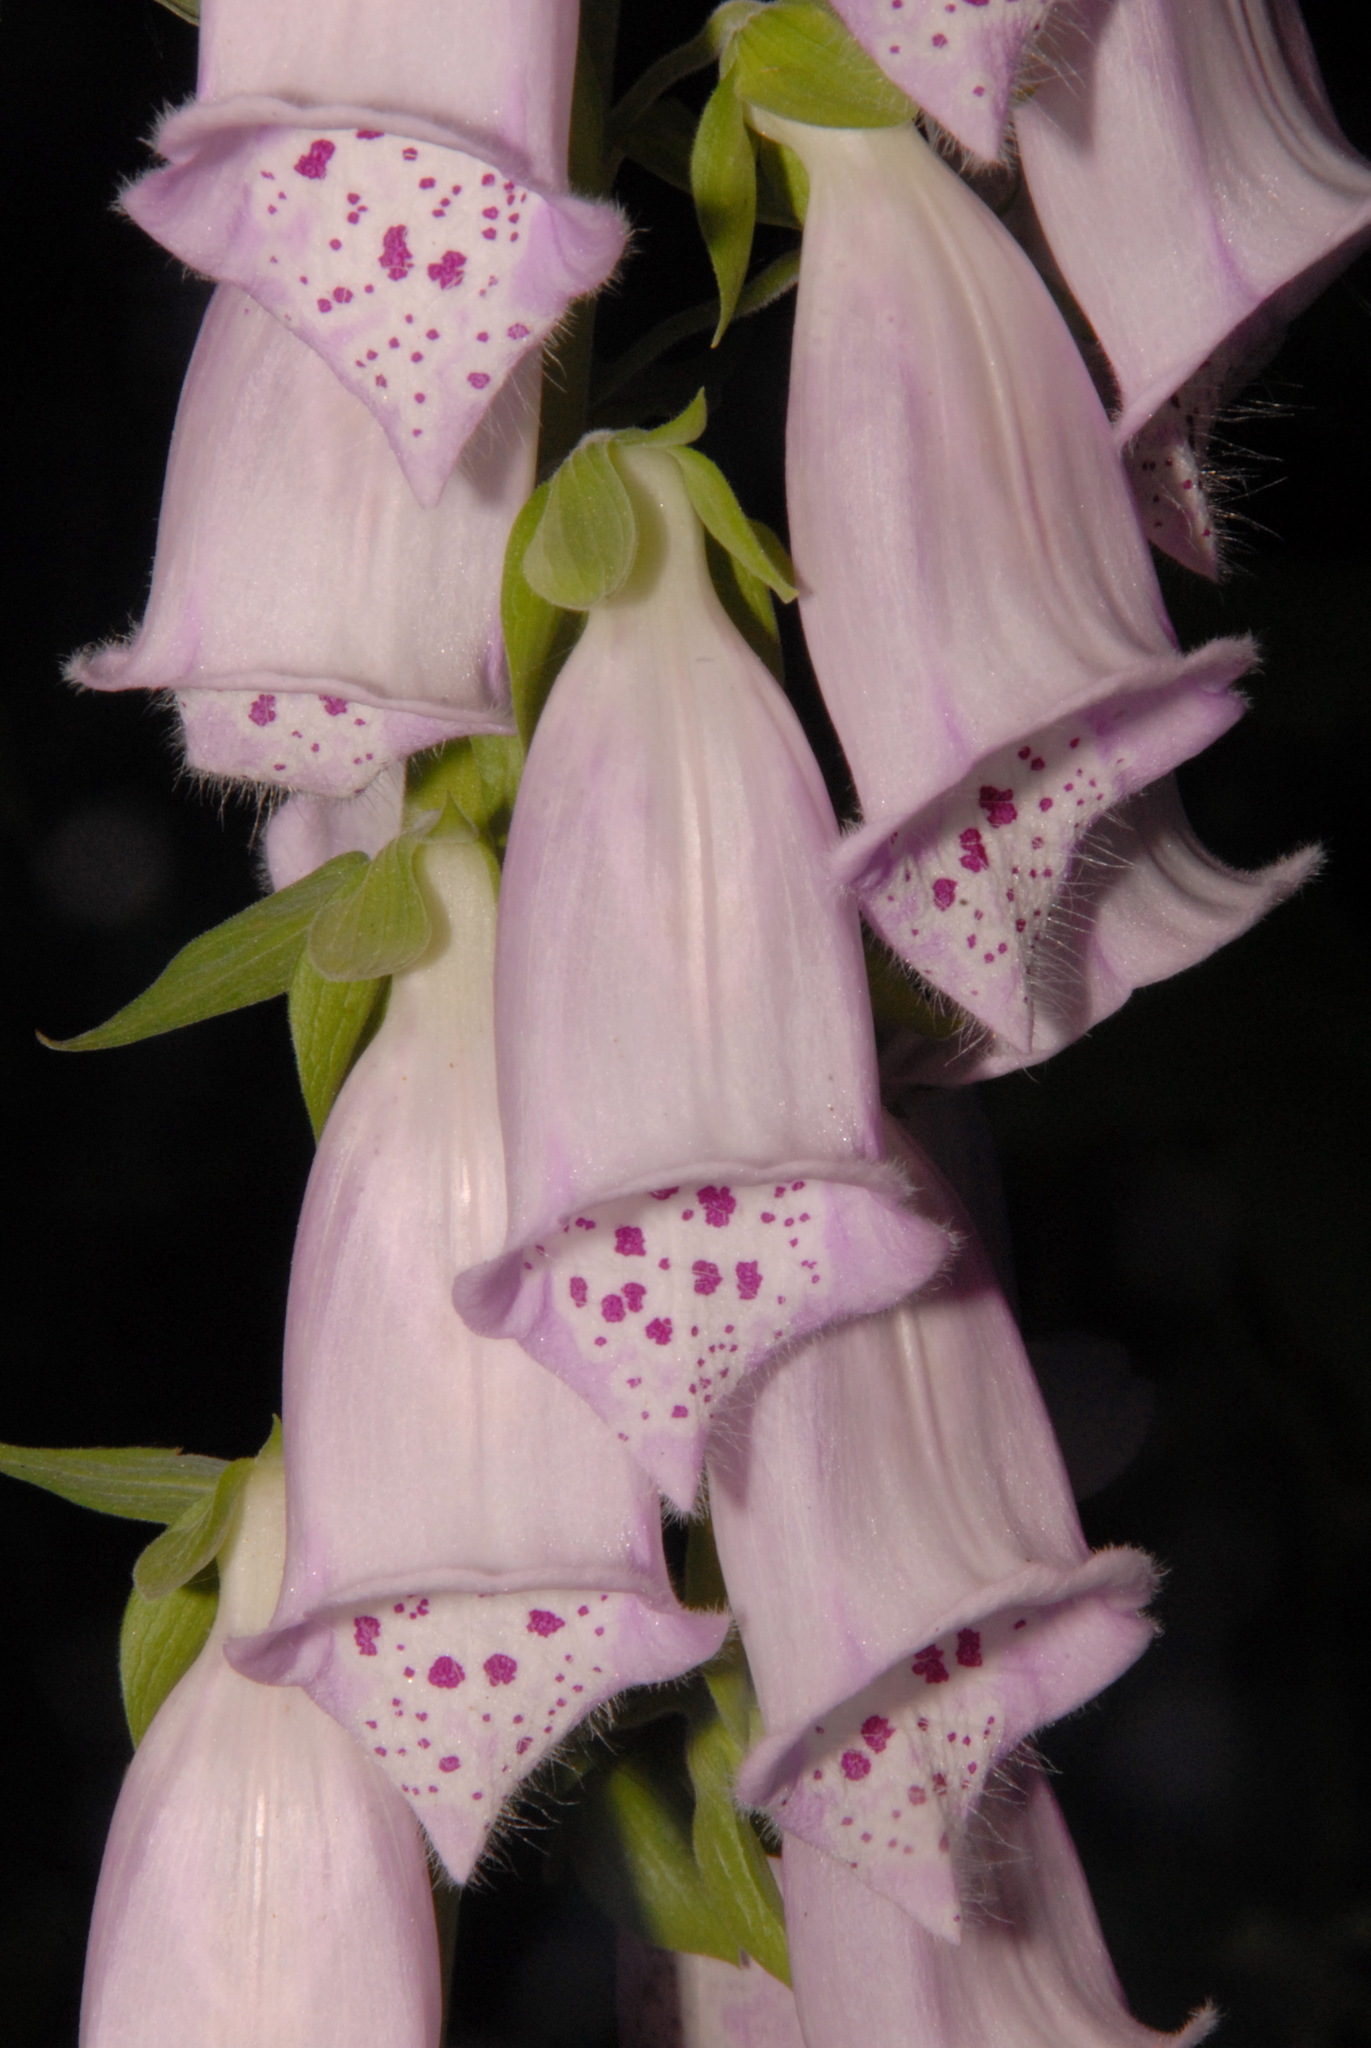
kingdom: Plantae
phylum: Tracheophyta
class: Magnoliopsida
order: Lamiales
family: Plantaginaceae
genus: Digitalis
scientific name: Digitalis purpurea
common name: Foxglove
